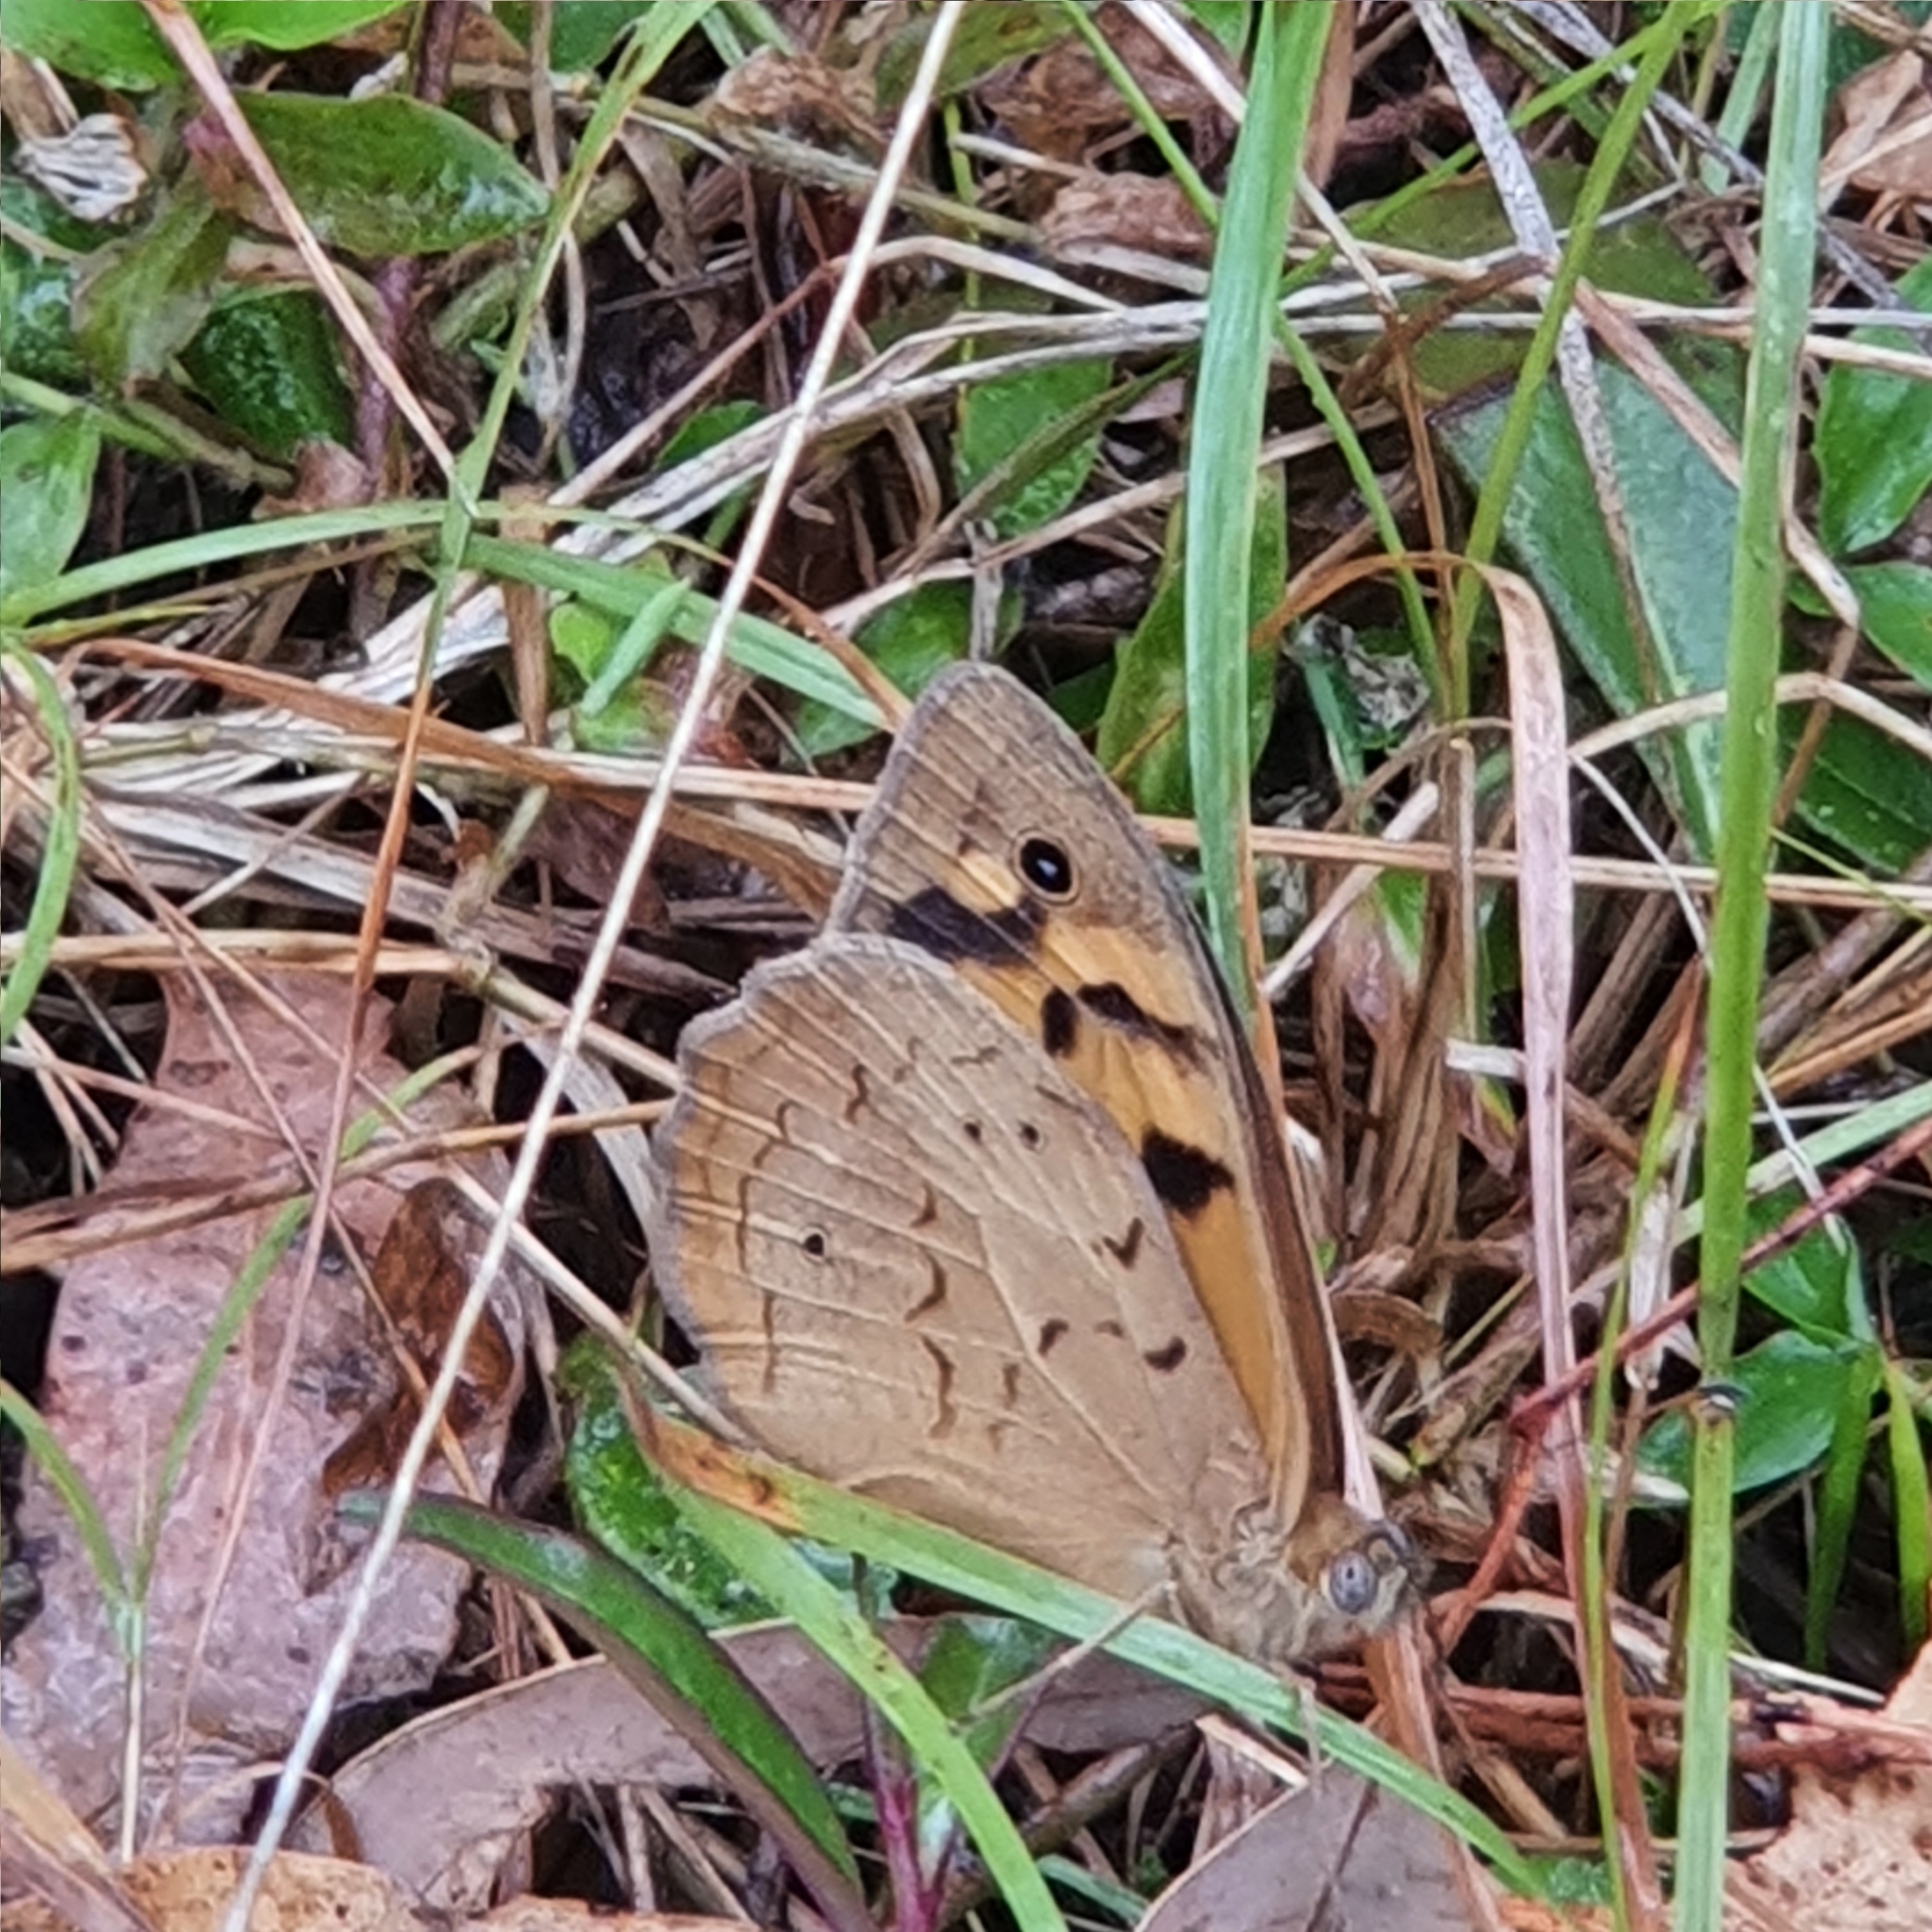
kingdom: Animalia
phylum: Arthropoda
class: Insecta
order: Lepidoptera
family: Nymphalidae
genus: Heteronympha
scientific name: Heteronympha merope
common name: Common brown
